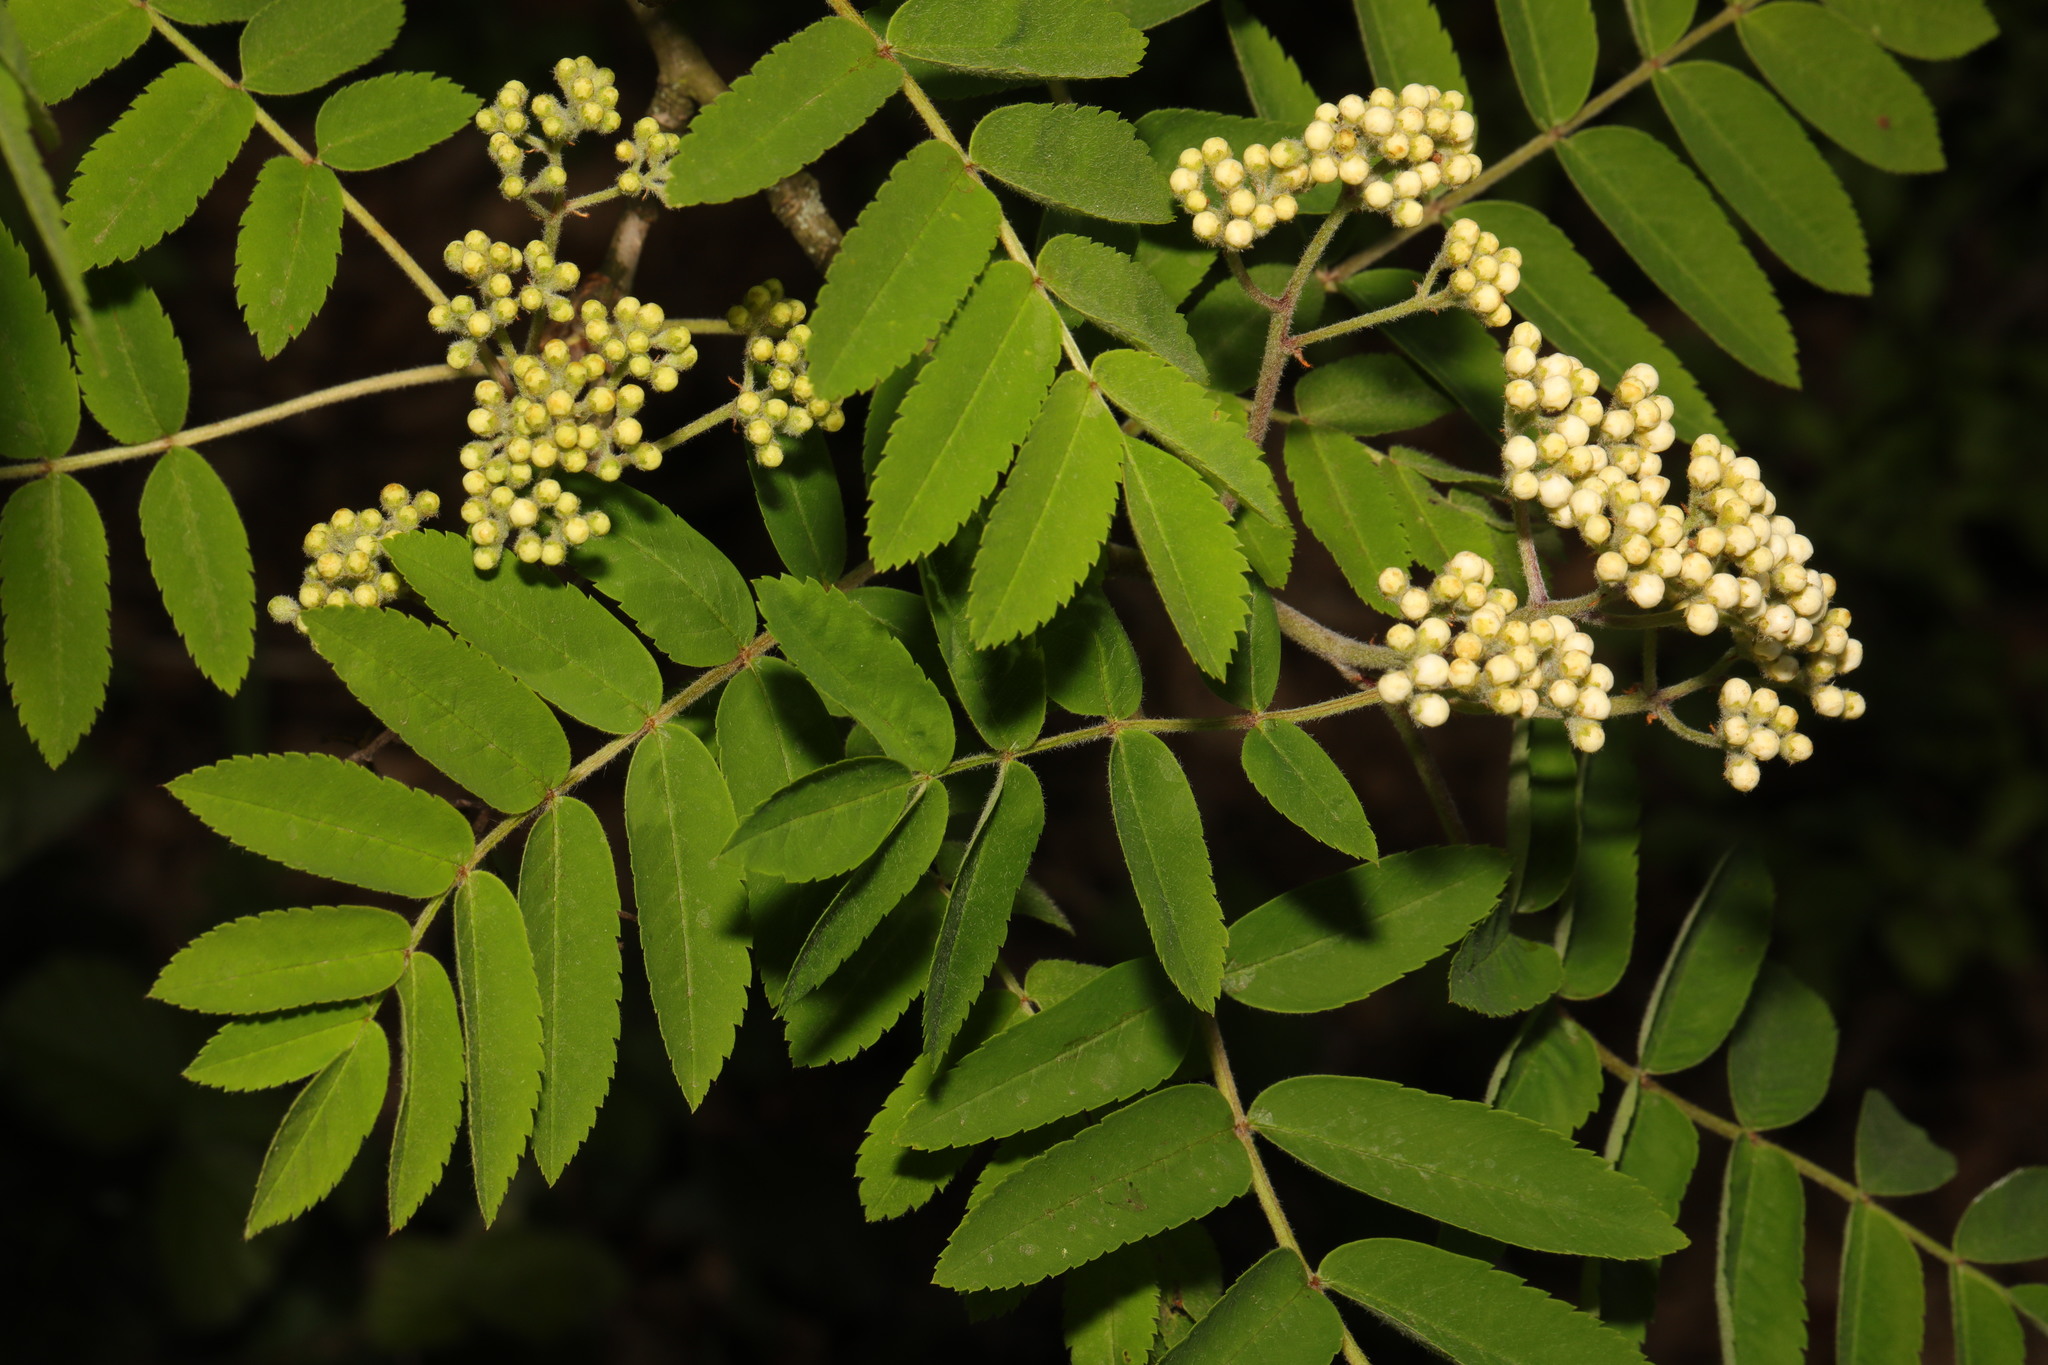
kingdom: Plantae
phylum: Tracheophyta
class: Magnoliopsida
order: Rosales
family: Rosaceae
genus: Sorbus
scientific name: Sorbus aucuparia
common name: Rowan
